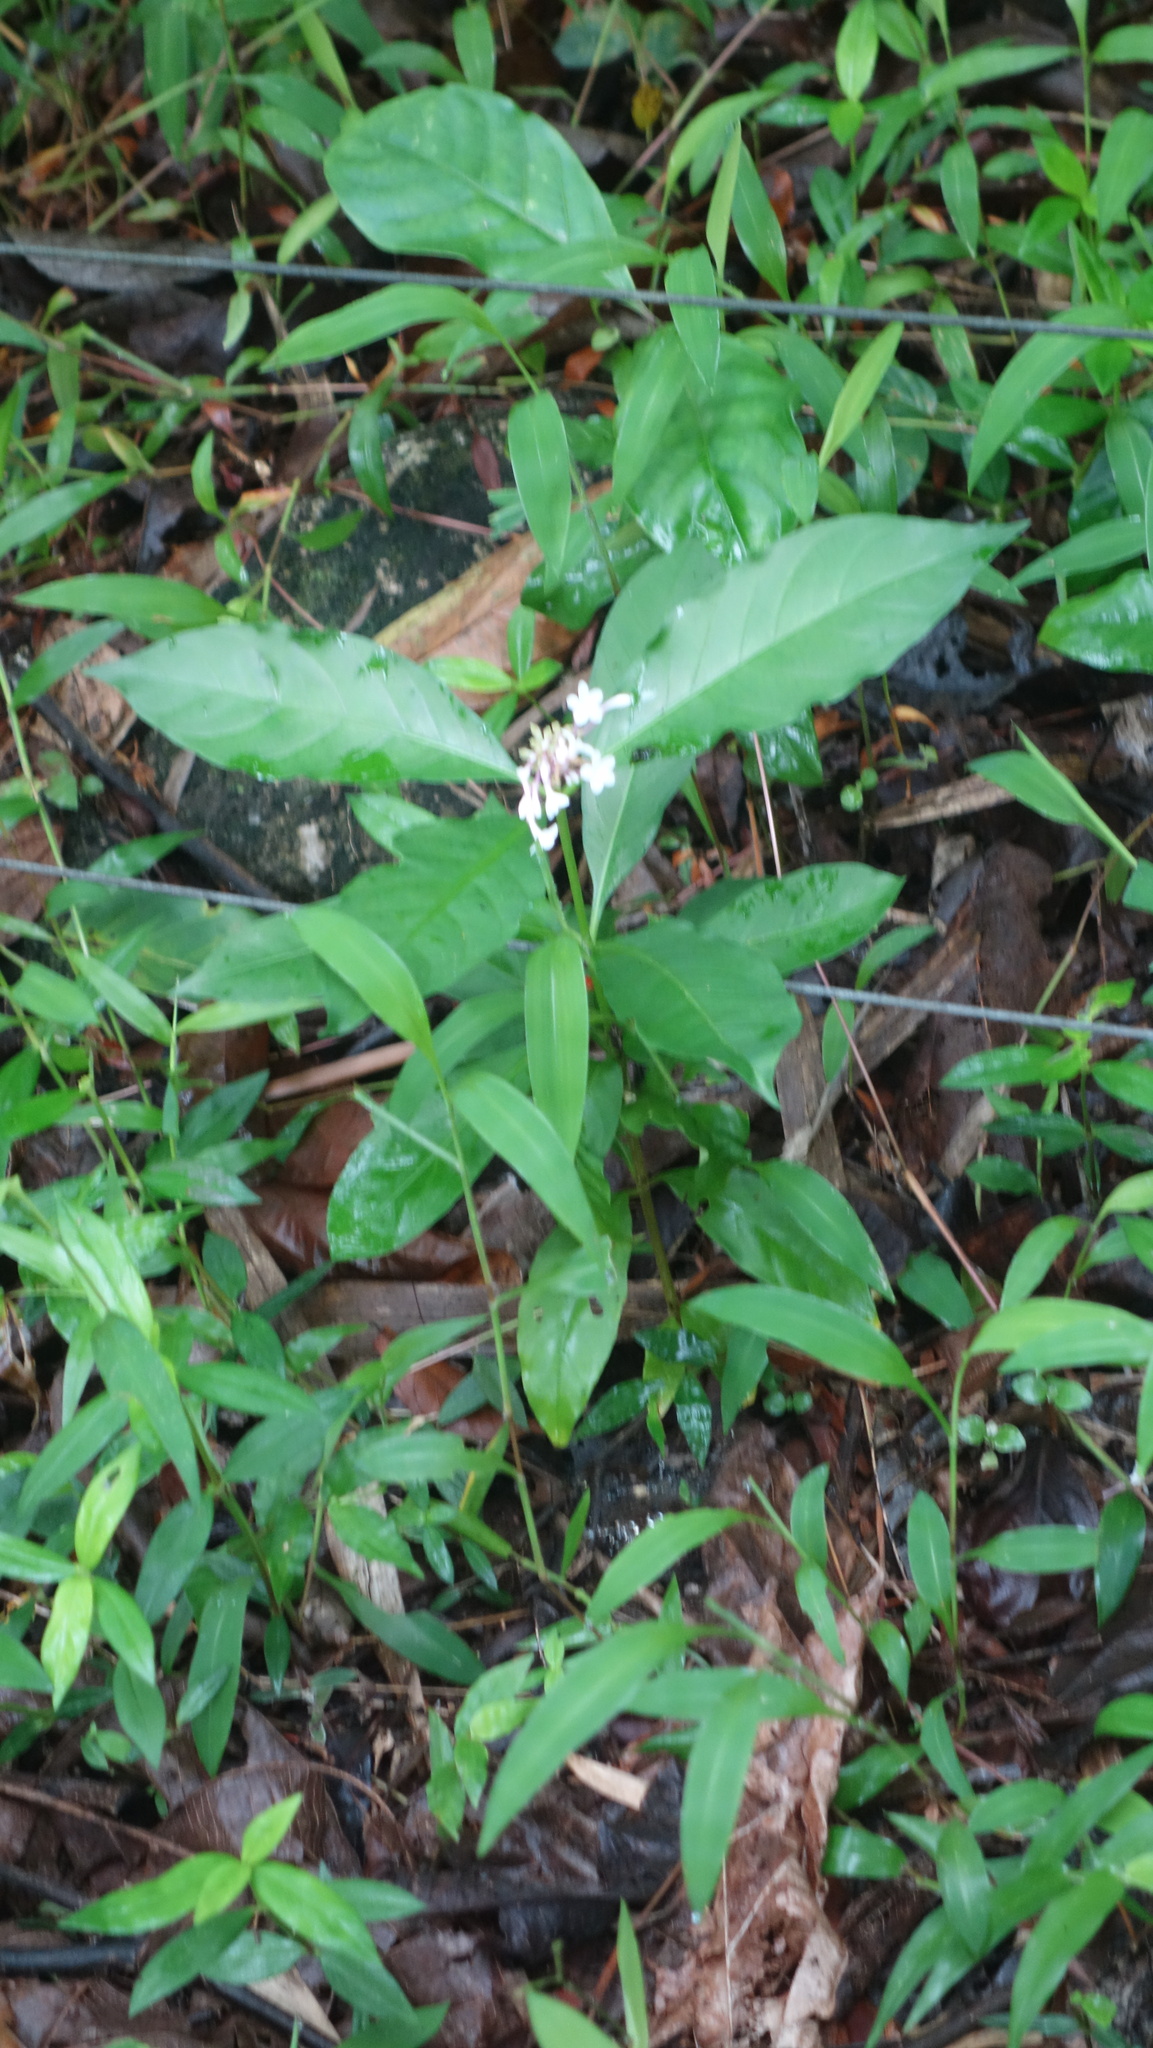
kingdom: Plantae
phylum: Tracheophyta
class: Magnoliopsida
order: Gentianales
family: Apocynaceae
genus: Rauvolfia
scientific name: Rauvolfia serpentina
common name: Ajmaline
